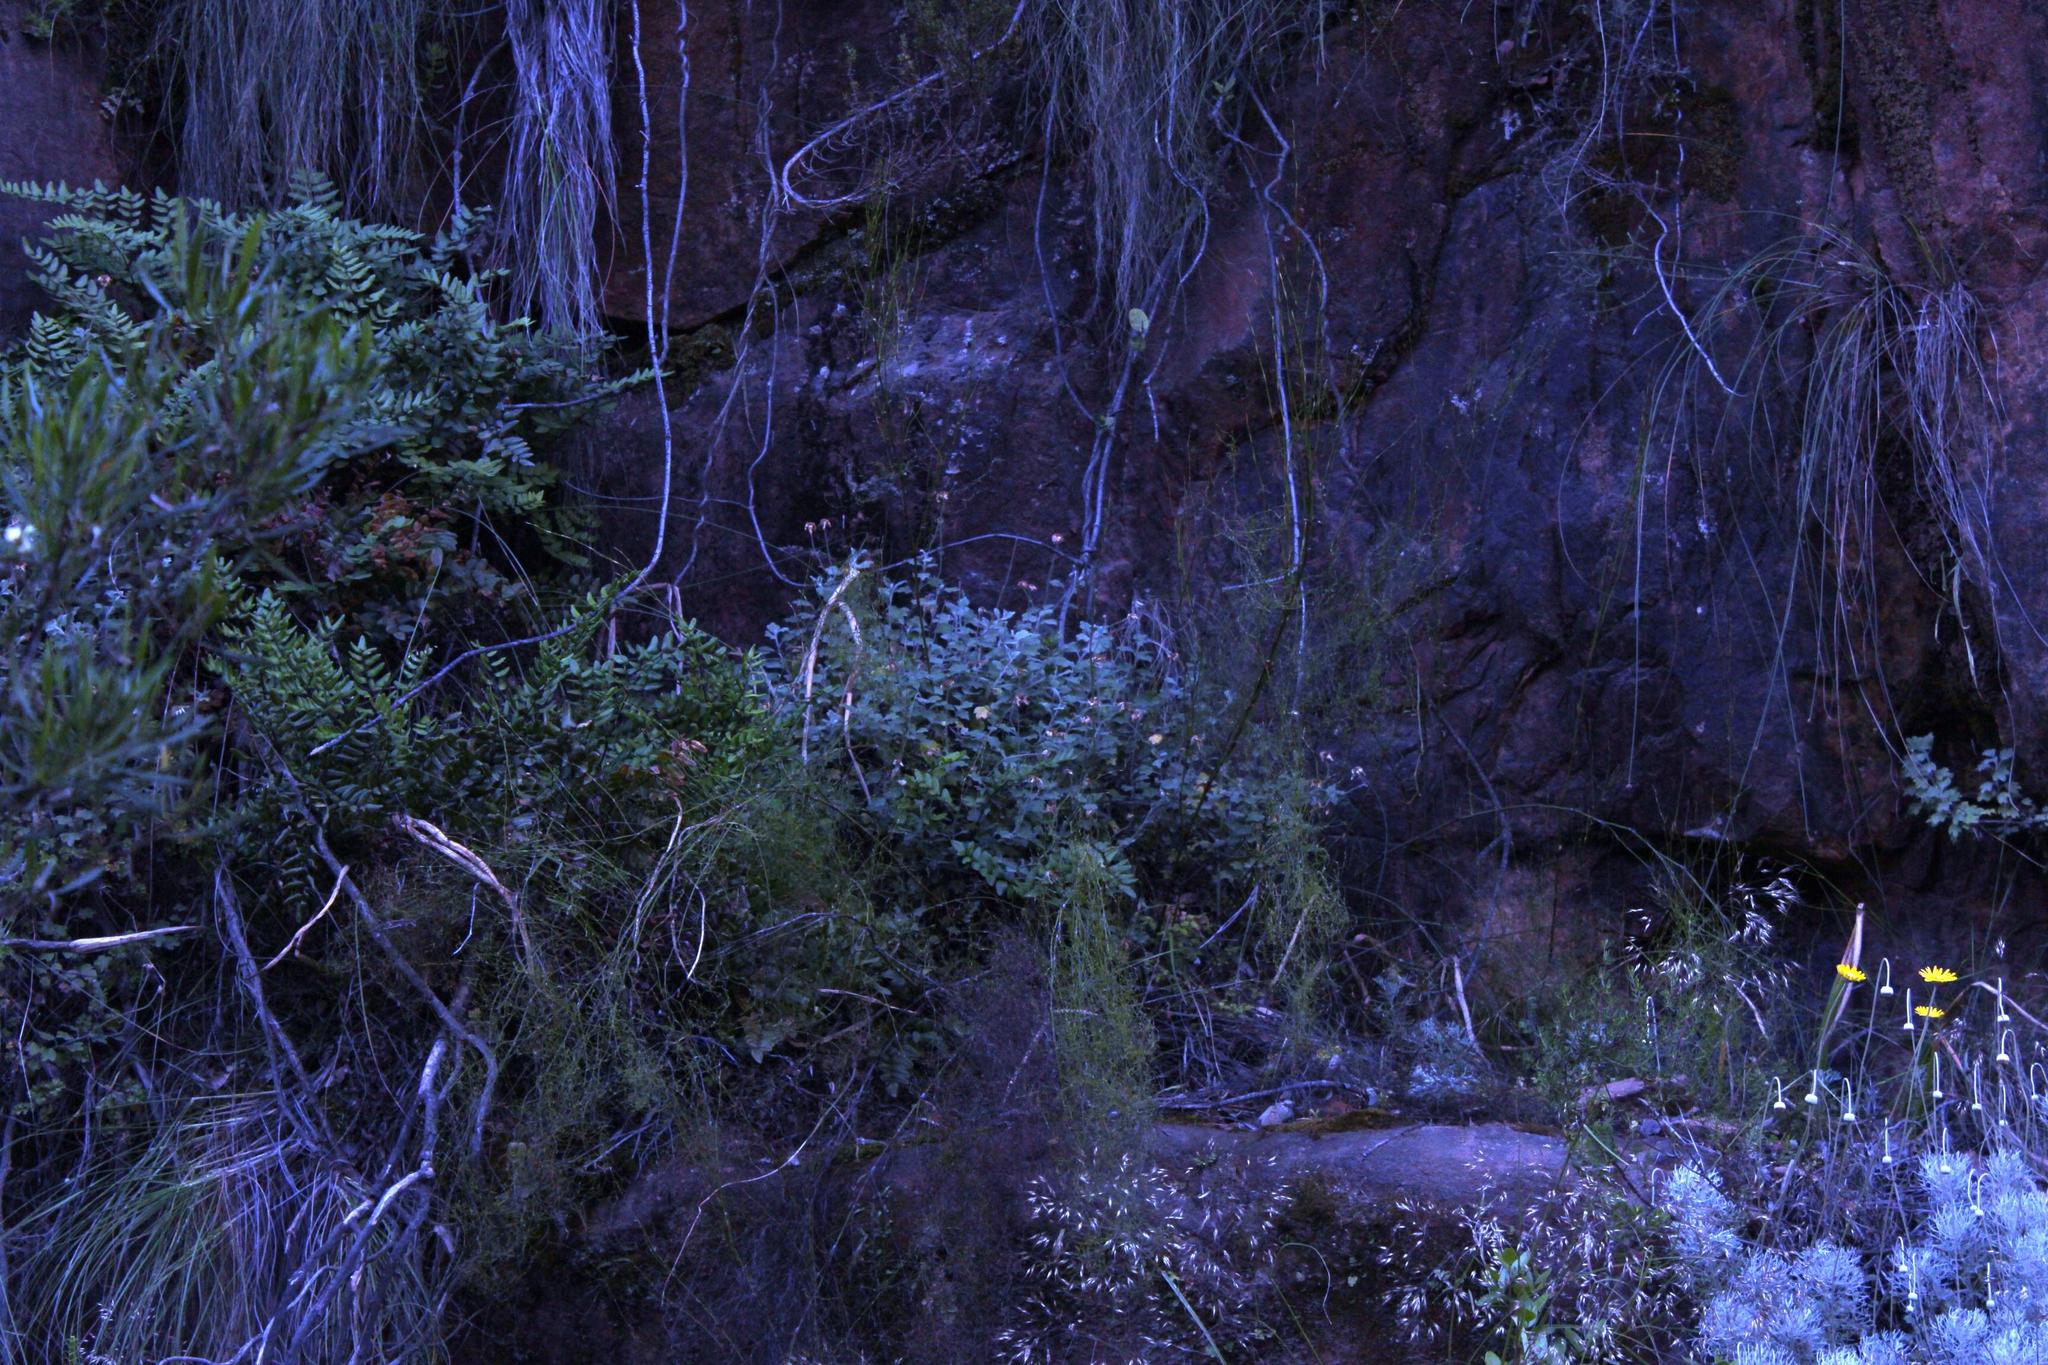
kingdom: Plantae
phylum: Tracheophyta
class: Magnoliopsida
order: Asterales
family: Asteraceae
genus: Lidbeckia
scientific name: Lidbeckia quinqueloba
